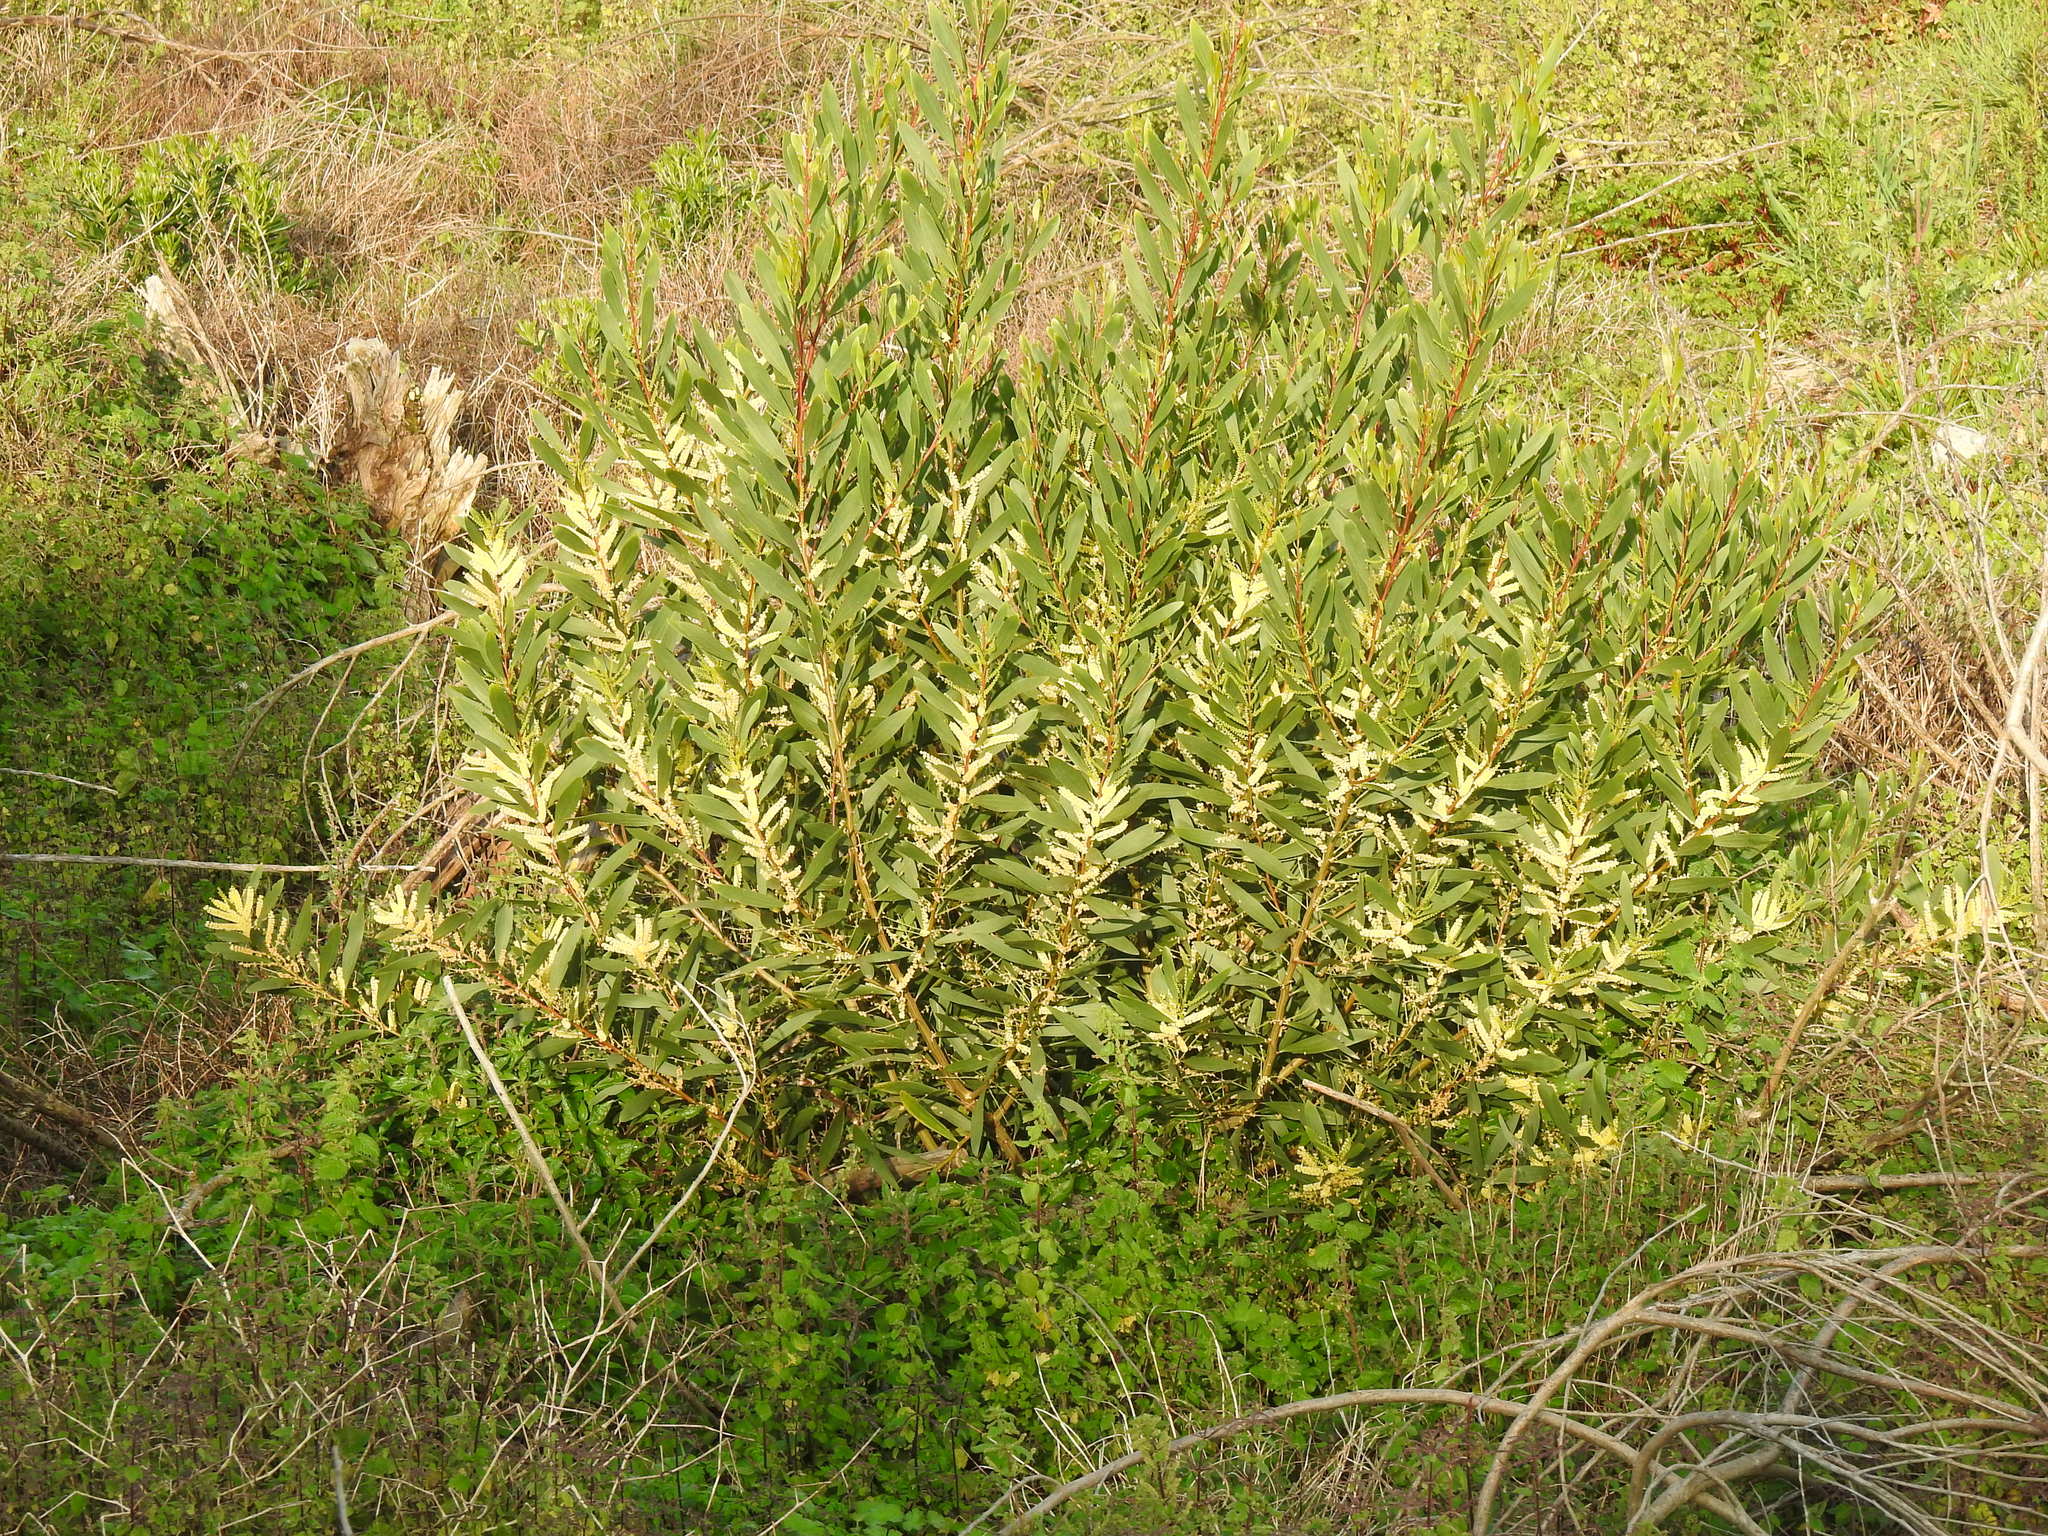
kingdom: Plantae
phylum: Tracheophyta
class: Magnoliopsida
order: Fabales
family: Fabaceae
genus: Acacia
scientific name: Acacia longifolia
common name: Sydney golden wattle
